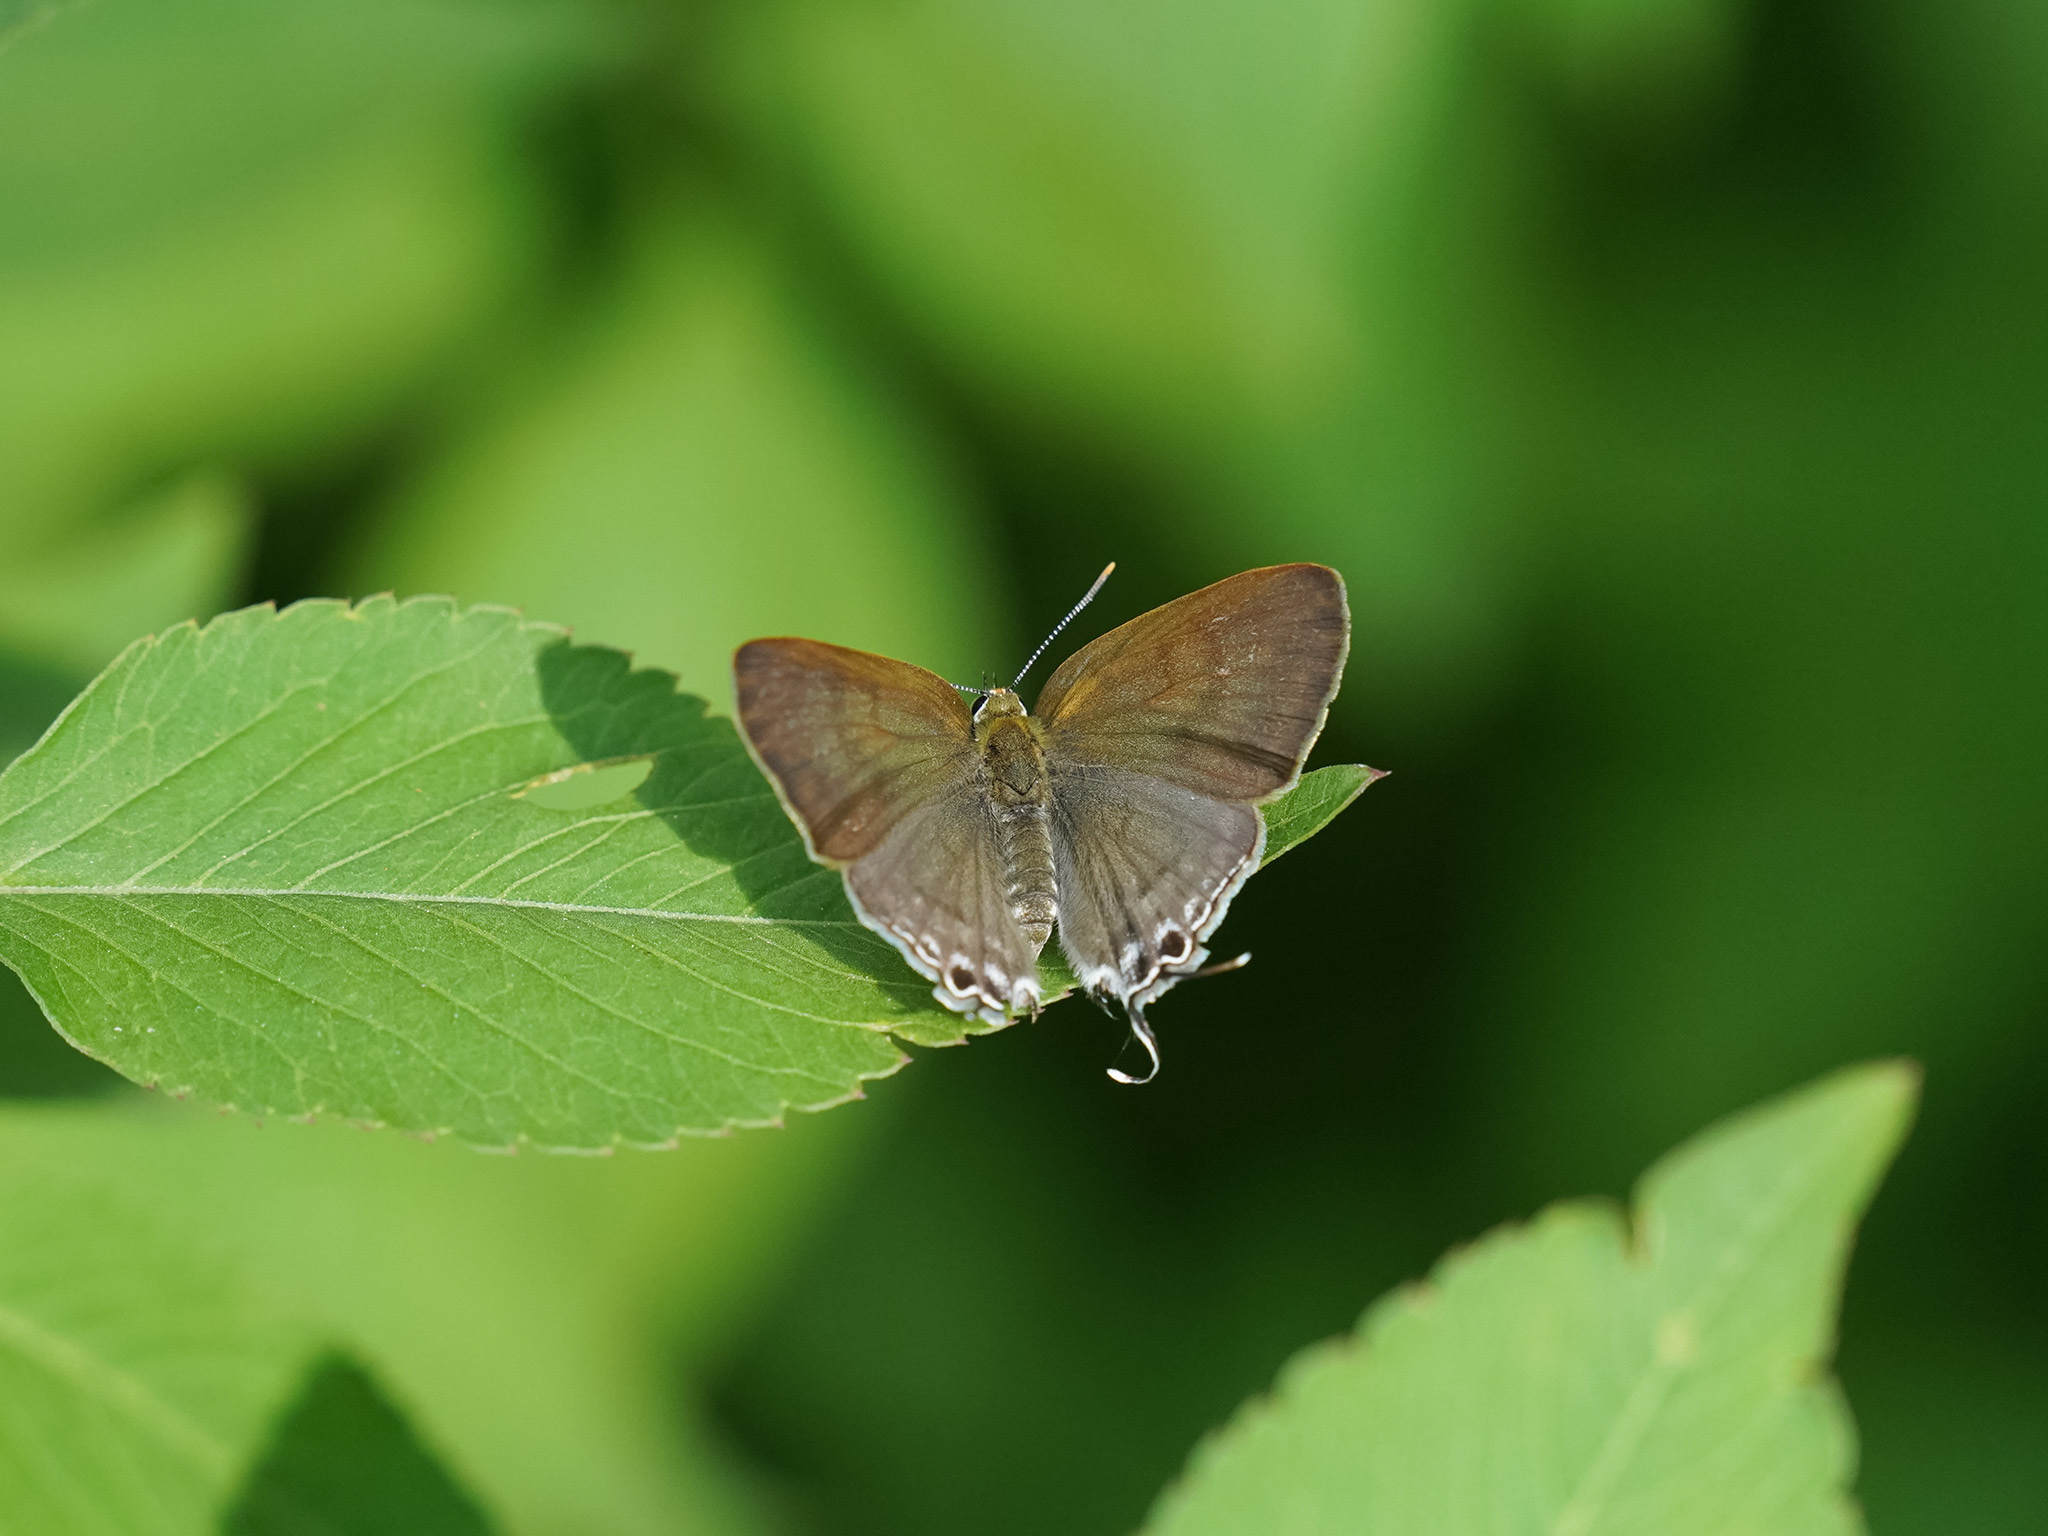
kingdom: Animalia
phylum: Arthropoda
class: Insecta
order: Lepidoptera
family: Lycaenidae
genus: Hypolycaena
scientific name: Hypolycaena erylus
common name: Common tit
